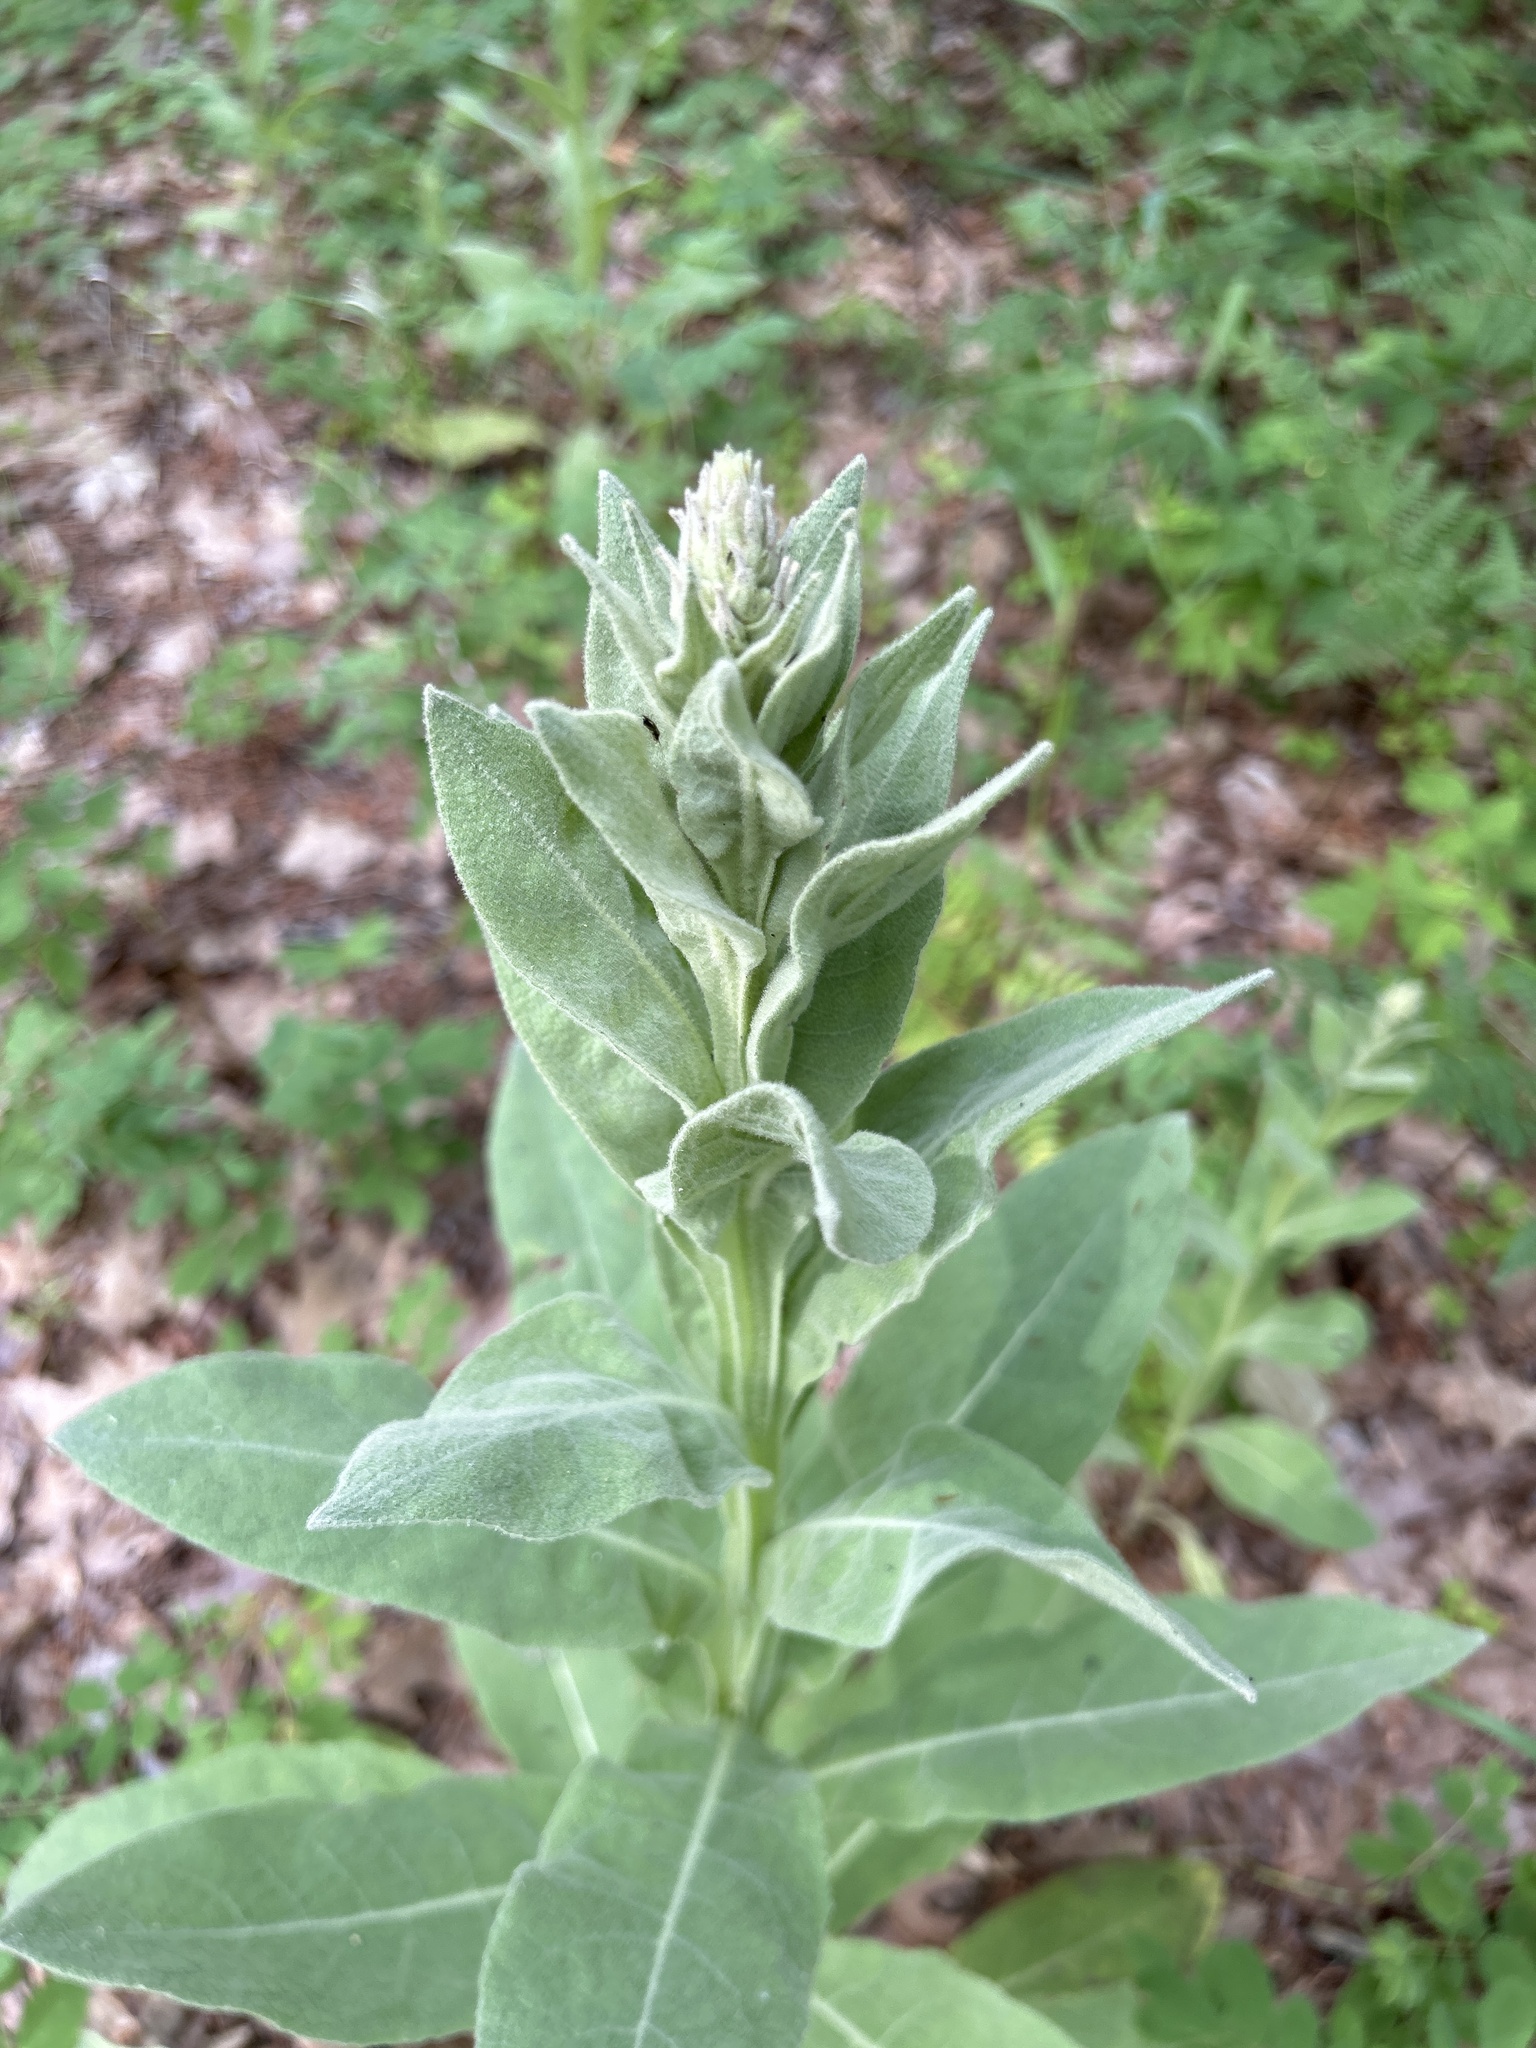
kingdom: Plantae
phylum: Tracheophyta
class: Magnoliopsida
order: Lamiales
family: Scrophulariaceae
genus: Verbascum
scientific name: Verbascum thapsus
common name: Common mullein
